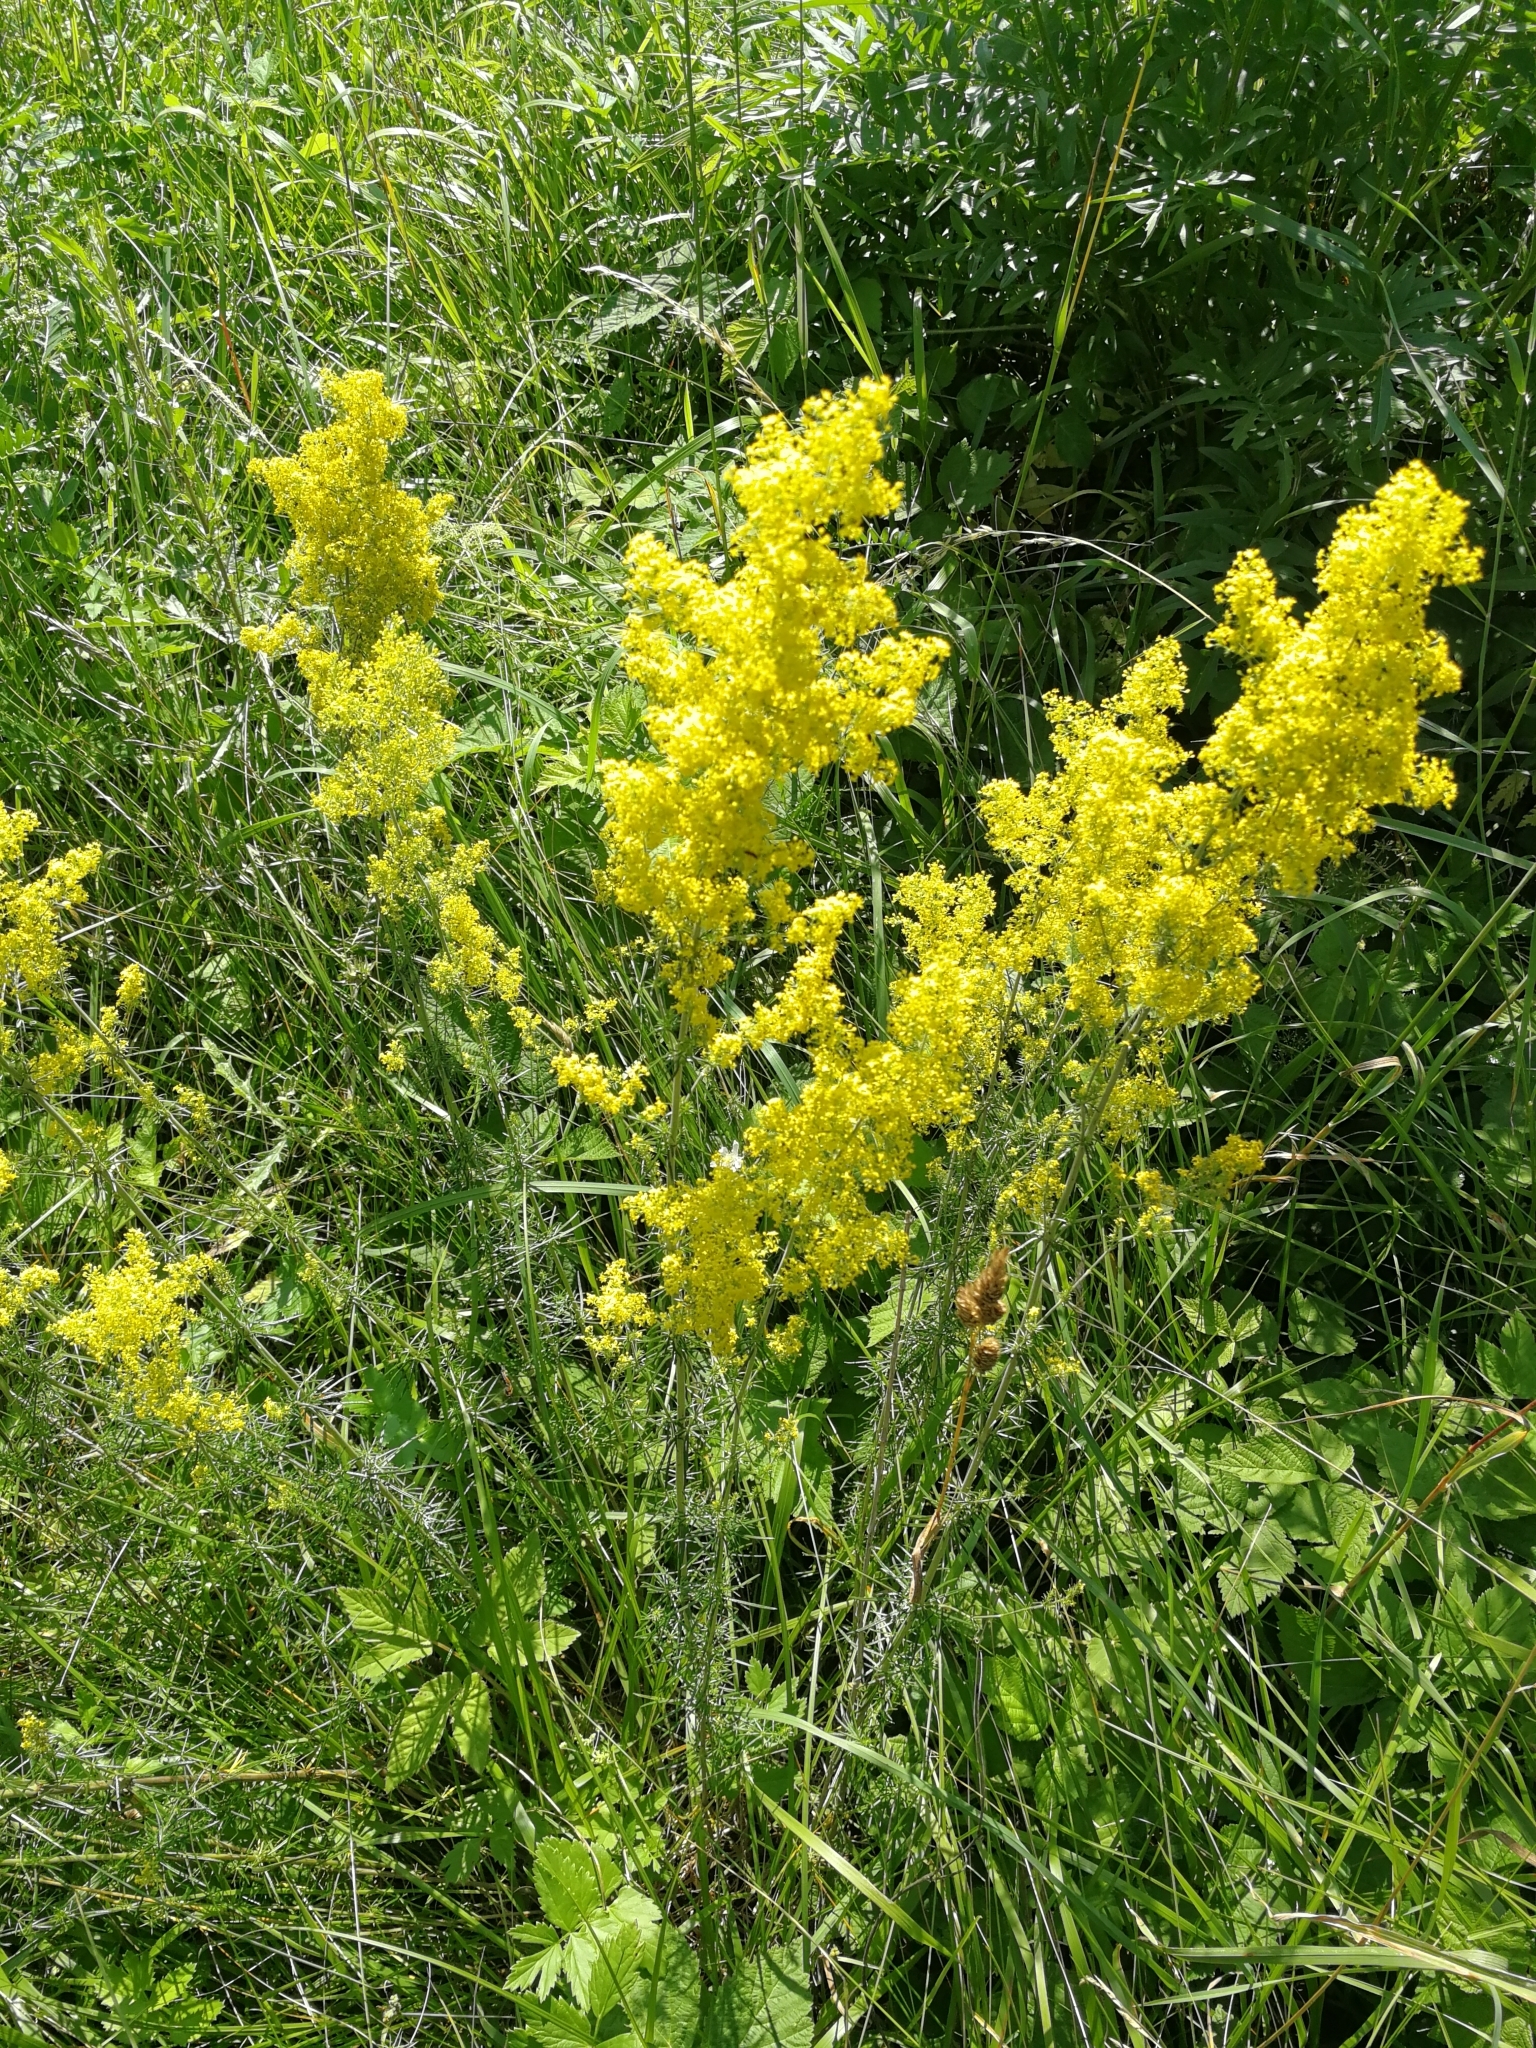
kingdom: Plantae
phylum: Tracheophyta
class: Magnoliopsida
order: Gentianales
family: Rubiaceae
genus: Galium
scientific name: Galium verum
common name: Lady's bedstraw
